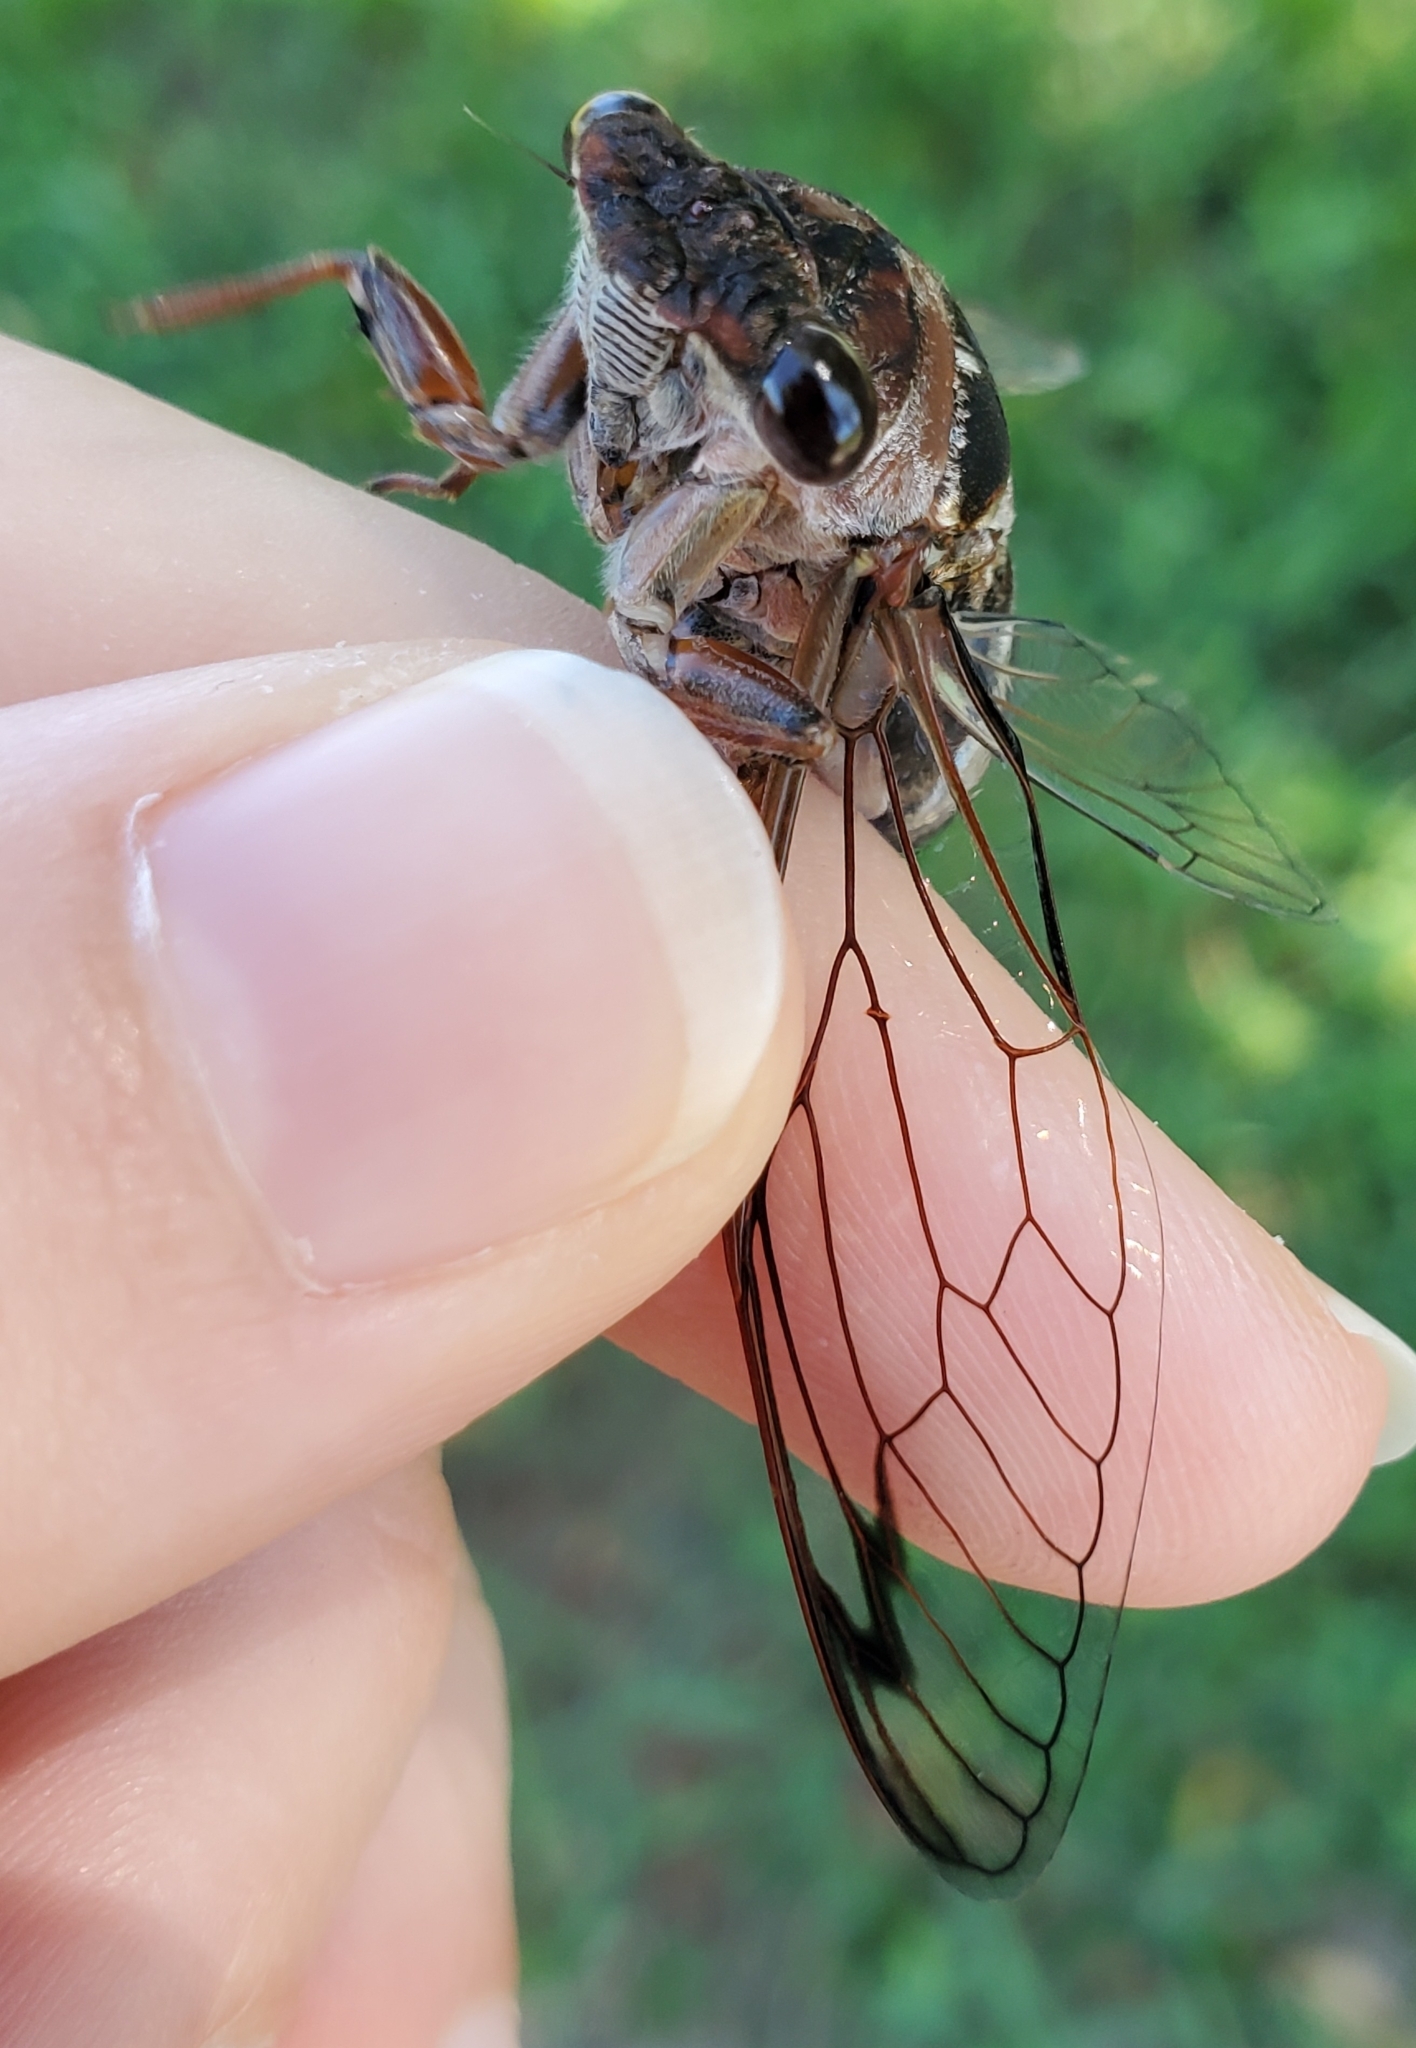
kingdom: Animalia
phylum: Arthropoda
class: Insecta
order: Hemiptera
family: Cicadidae
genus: Neotibicen
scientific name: Neotibicen davisi
